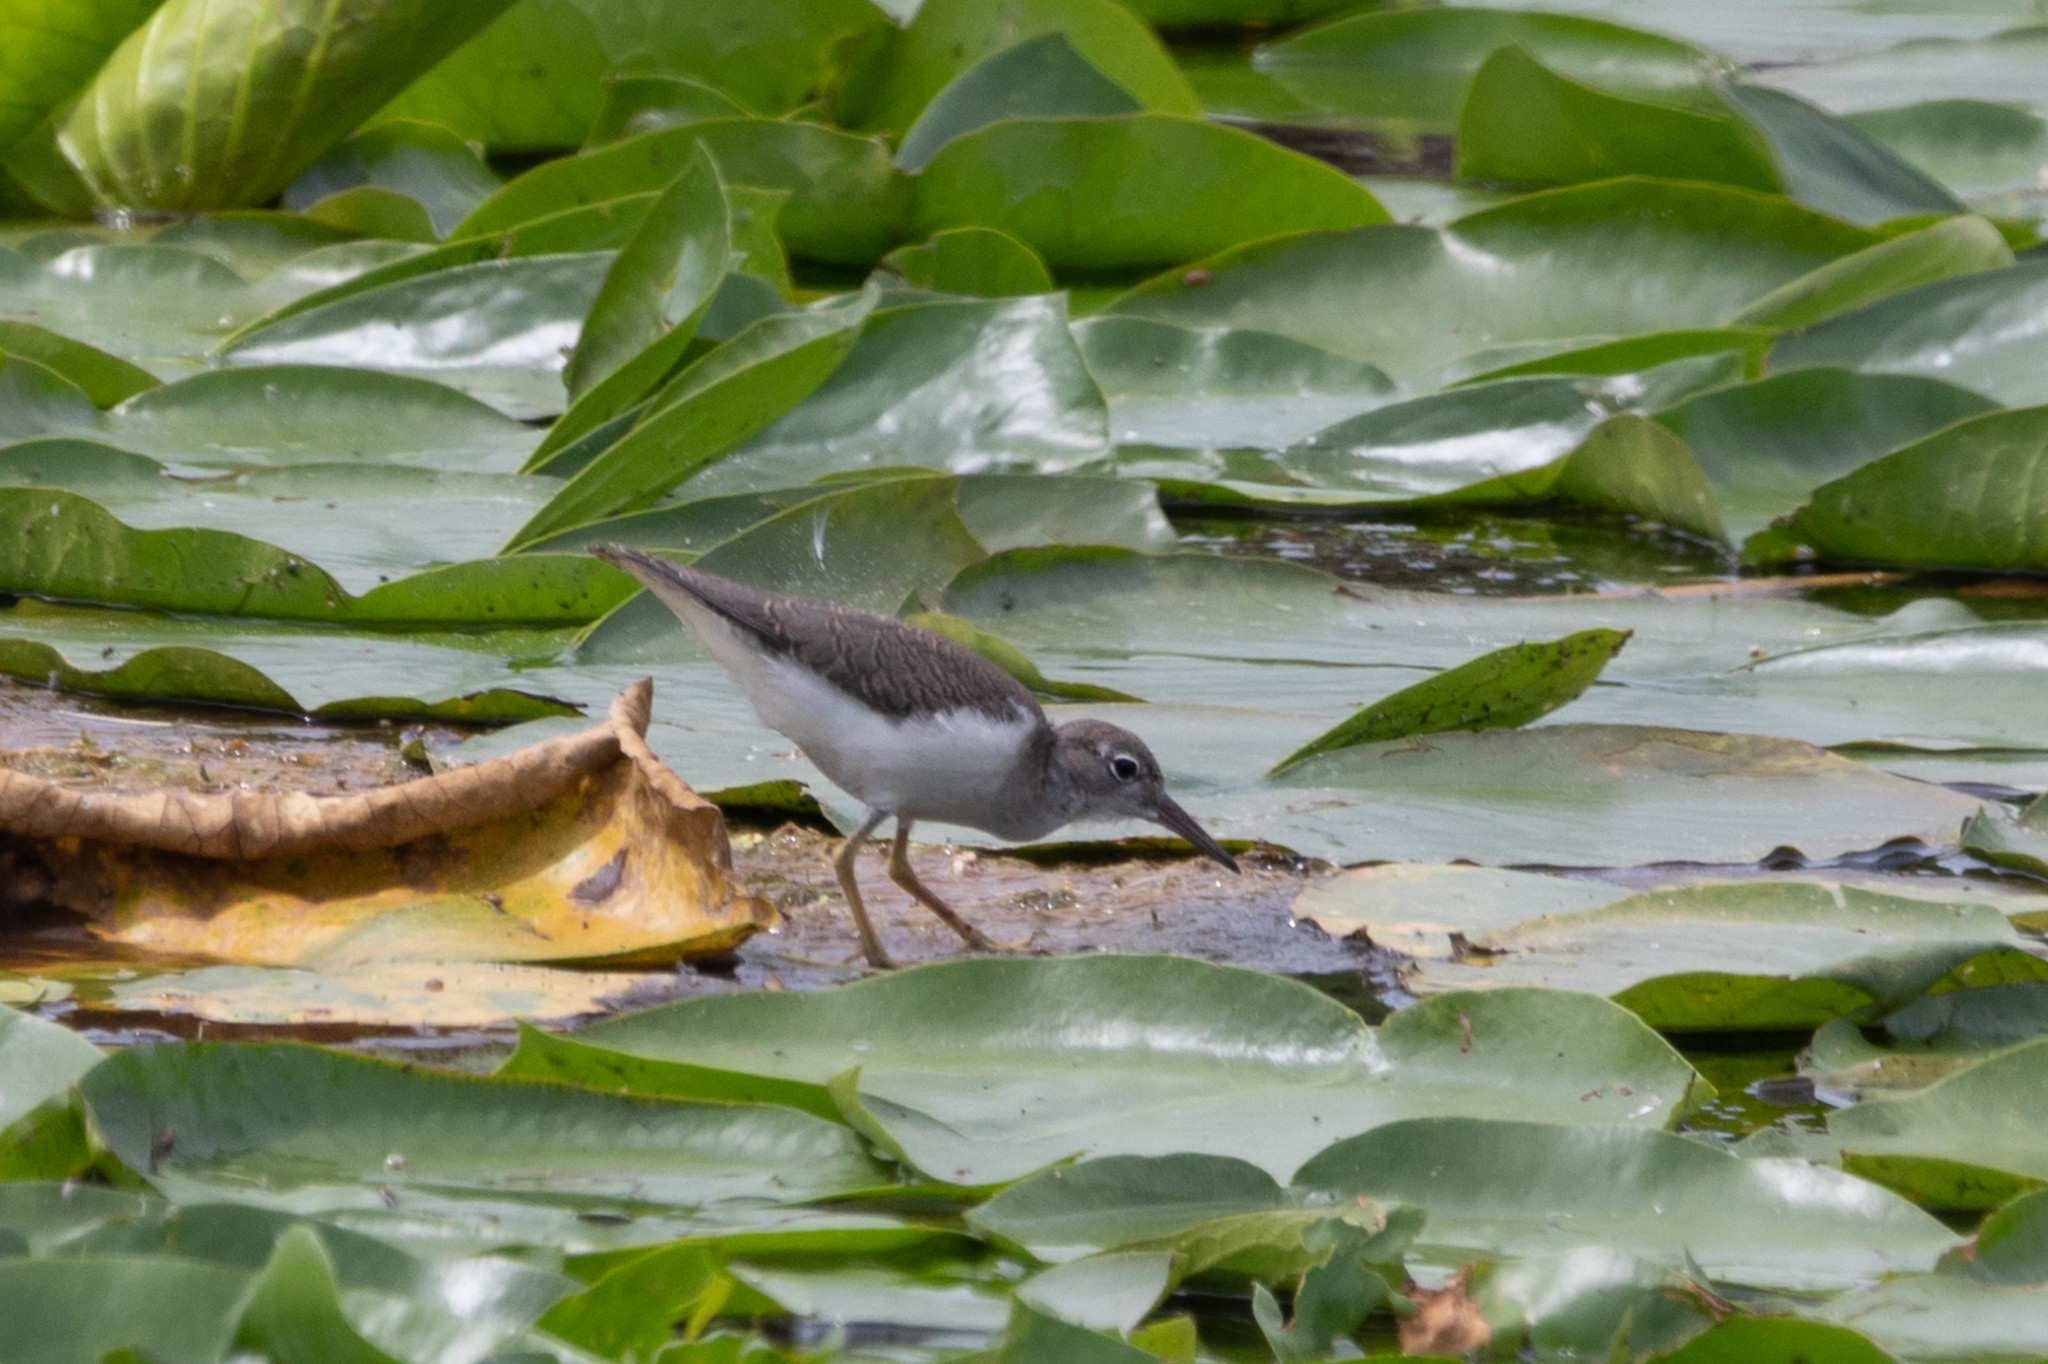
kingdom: Animalia
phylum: Chordata
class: Aves
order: Charadriiformes
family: Scolopacidae
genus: Actitis
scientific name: Actitis macularius
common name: Spotted sandpiper
